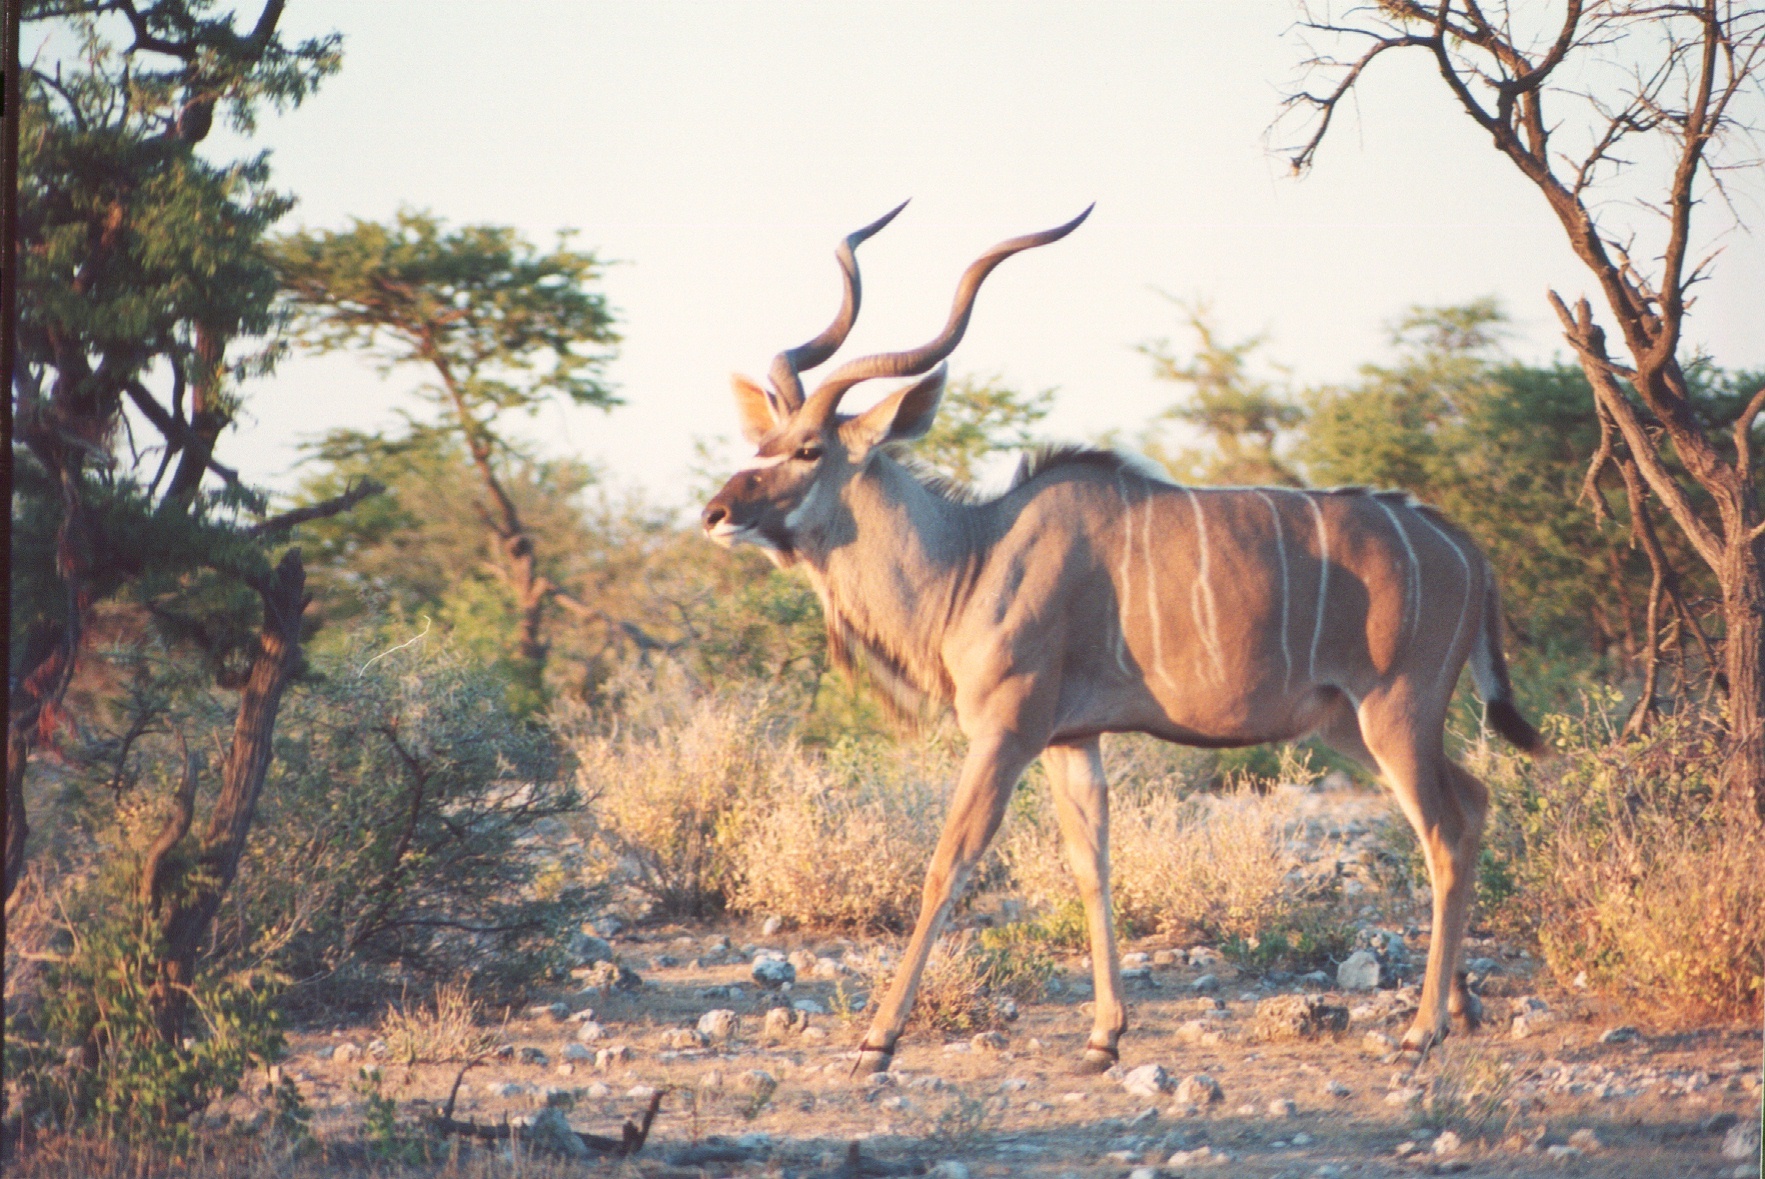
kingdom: Animalia
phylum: Chordata
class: Mammalia
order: Artiodactyla
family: Bovidae
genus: Tragelaphus
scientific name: Tragelaphus strepsiceros
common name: Greater kudu
